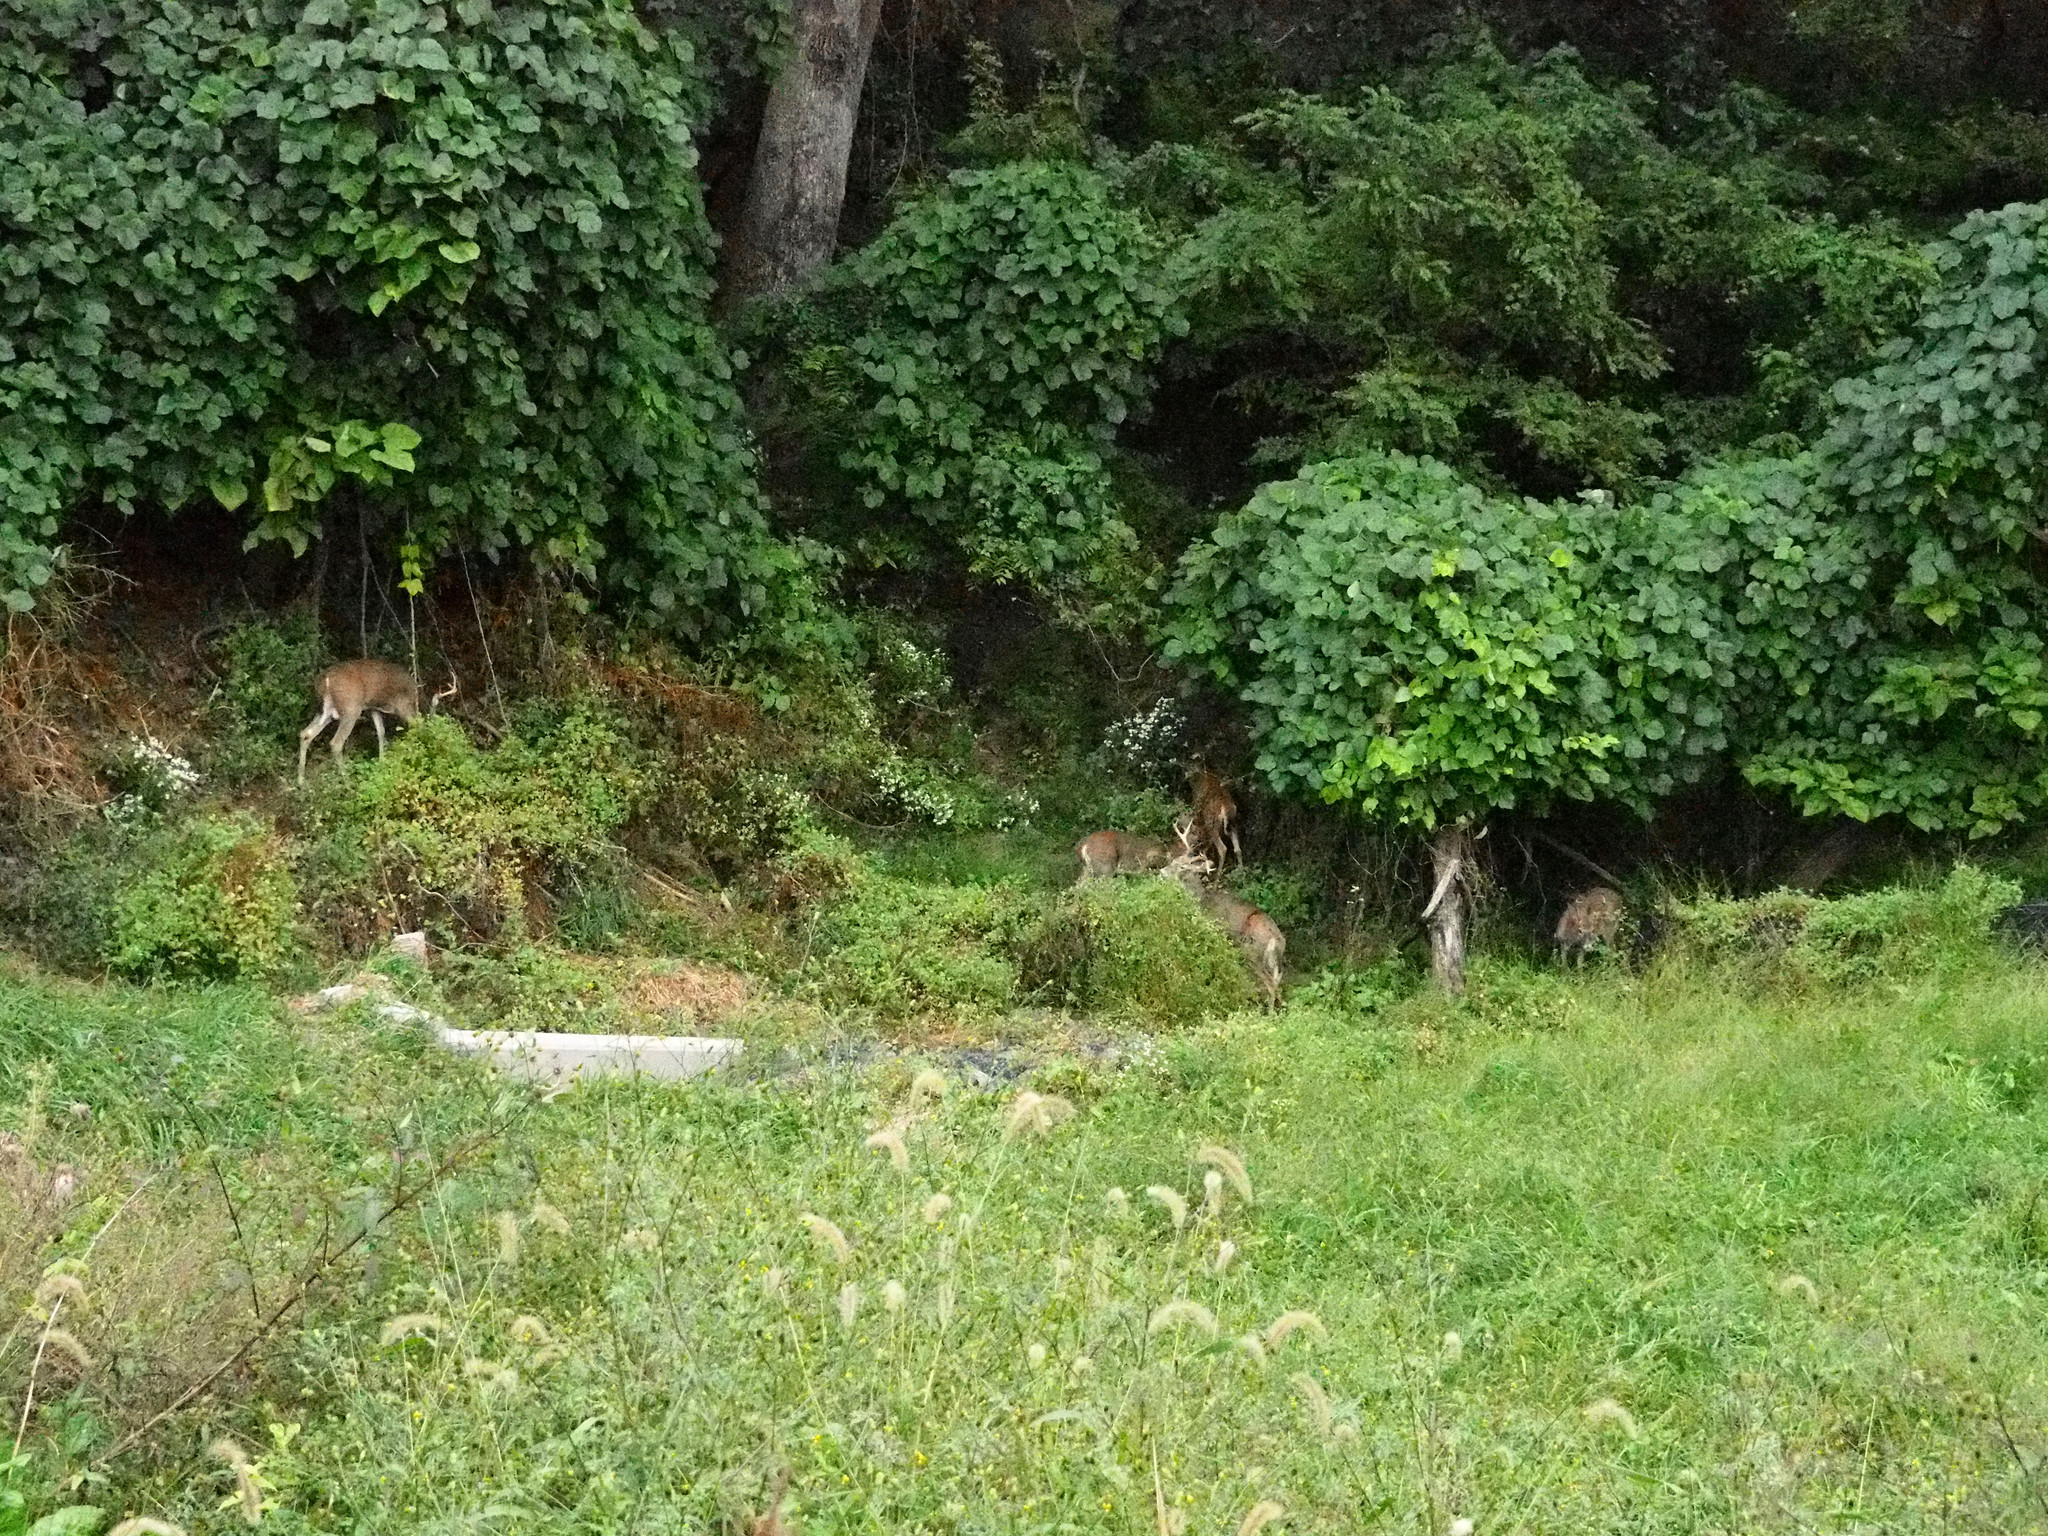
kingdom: Animalia
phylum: Chordata
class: Mammalia
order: Artiodactyla
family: Cervidae
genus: Odocoileus
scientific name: Odocoileus virginianus
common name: White-tailed deer
